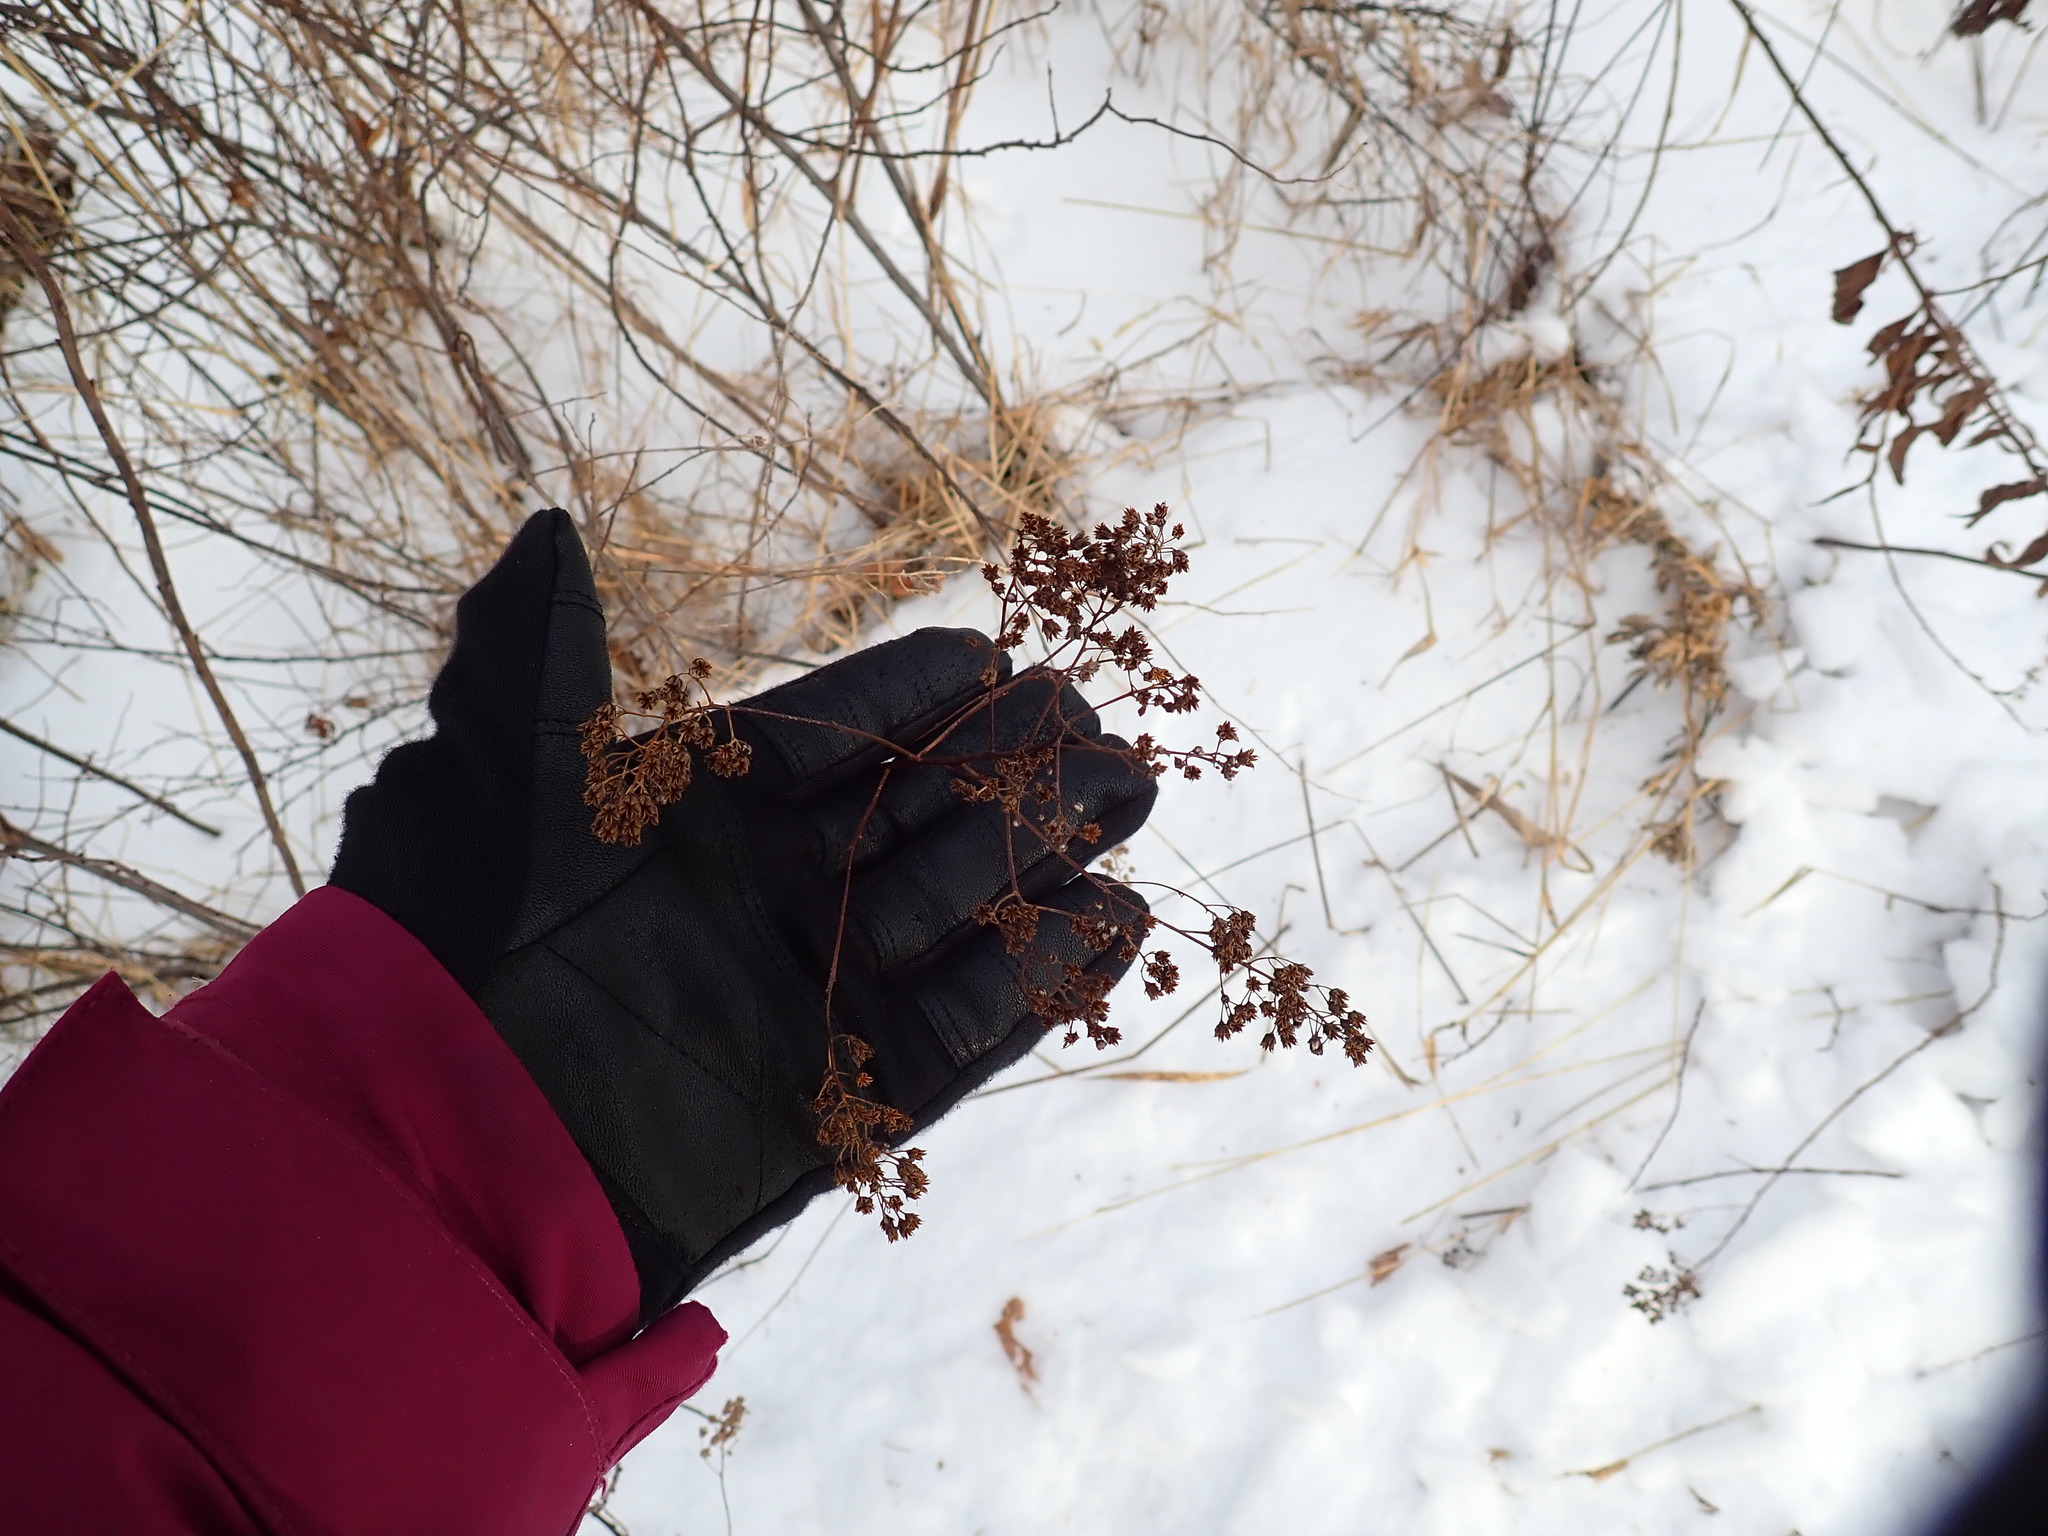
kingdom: Plantae
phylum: Tracheophyta
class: Magnoliopsida
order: Rosales
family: Rosaceae
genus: Spiraea
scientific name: Spiraea alba
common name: Pale bridewort
